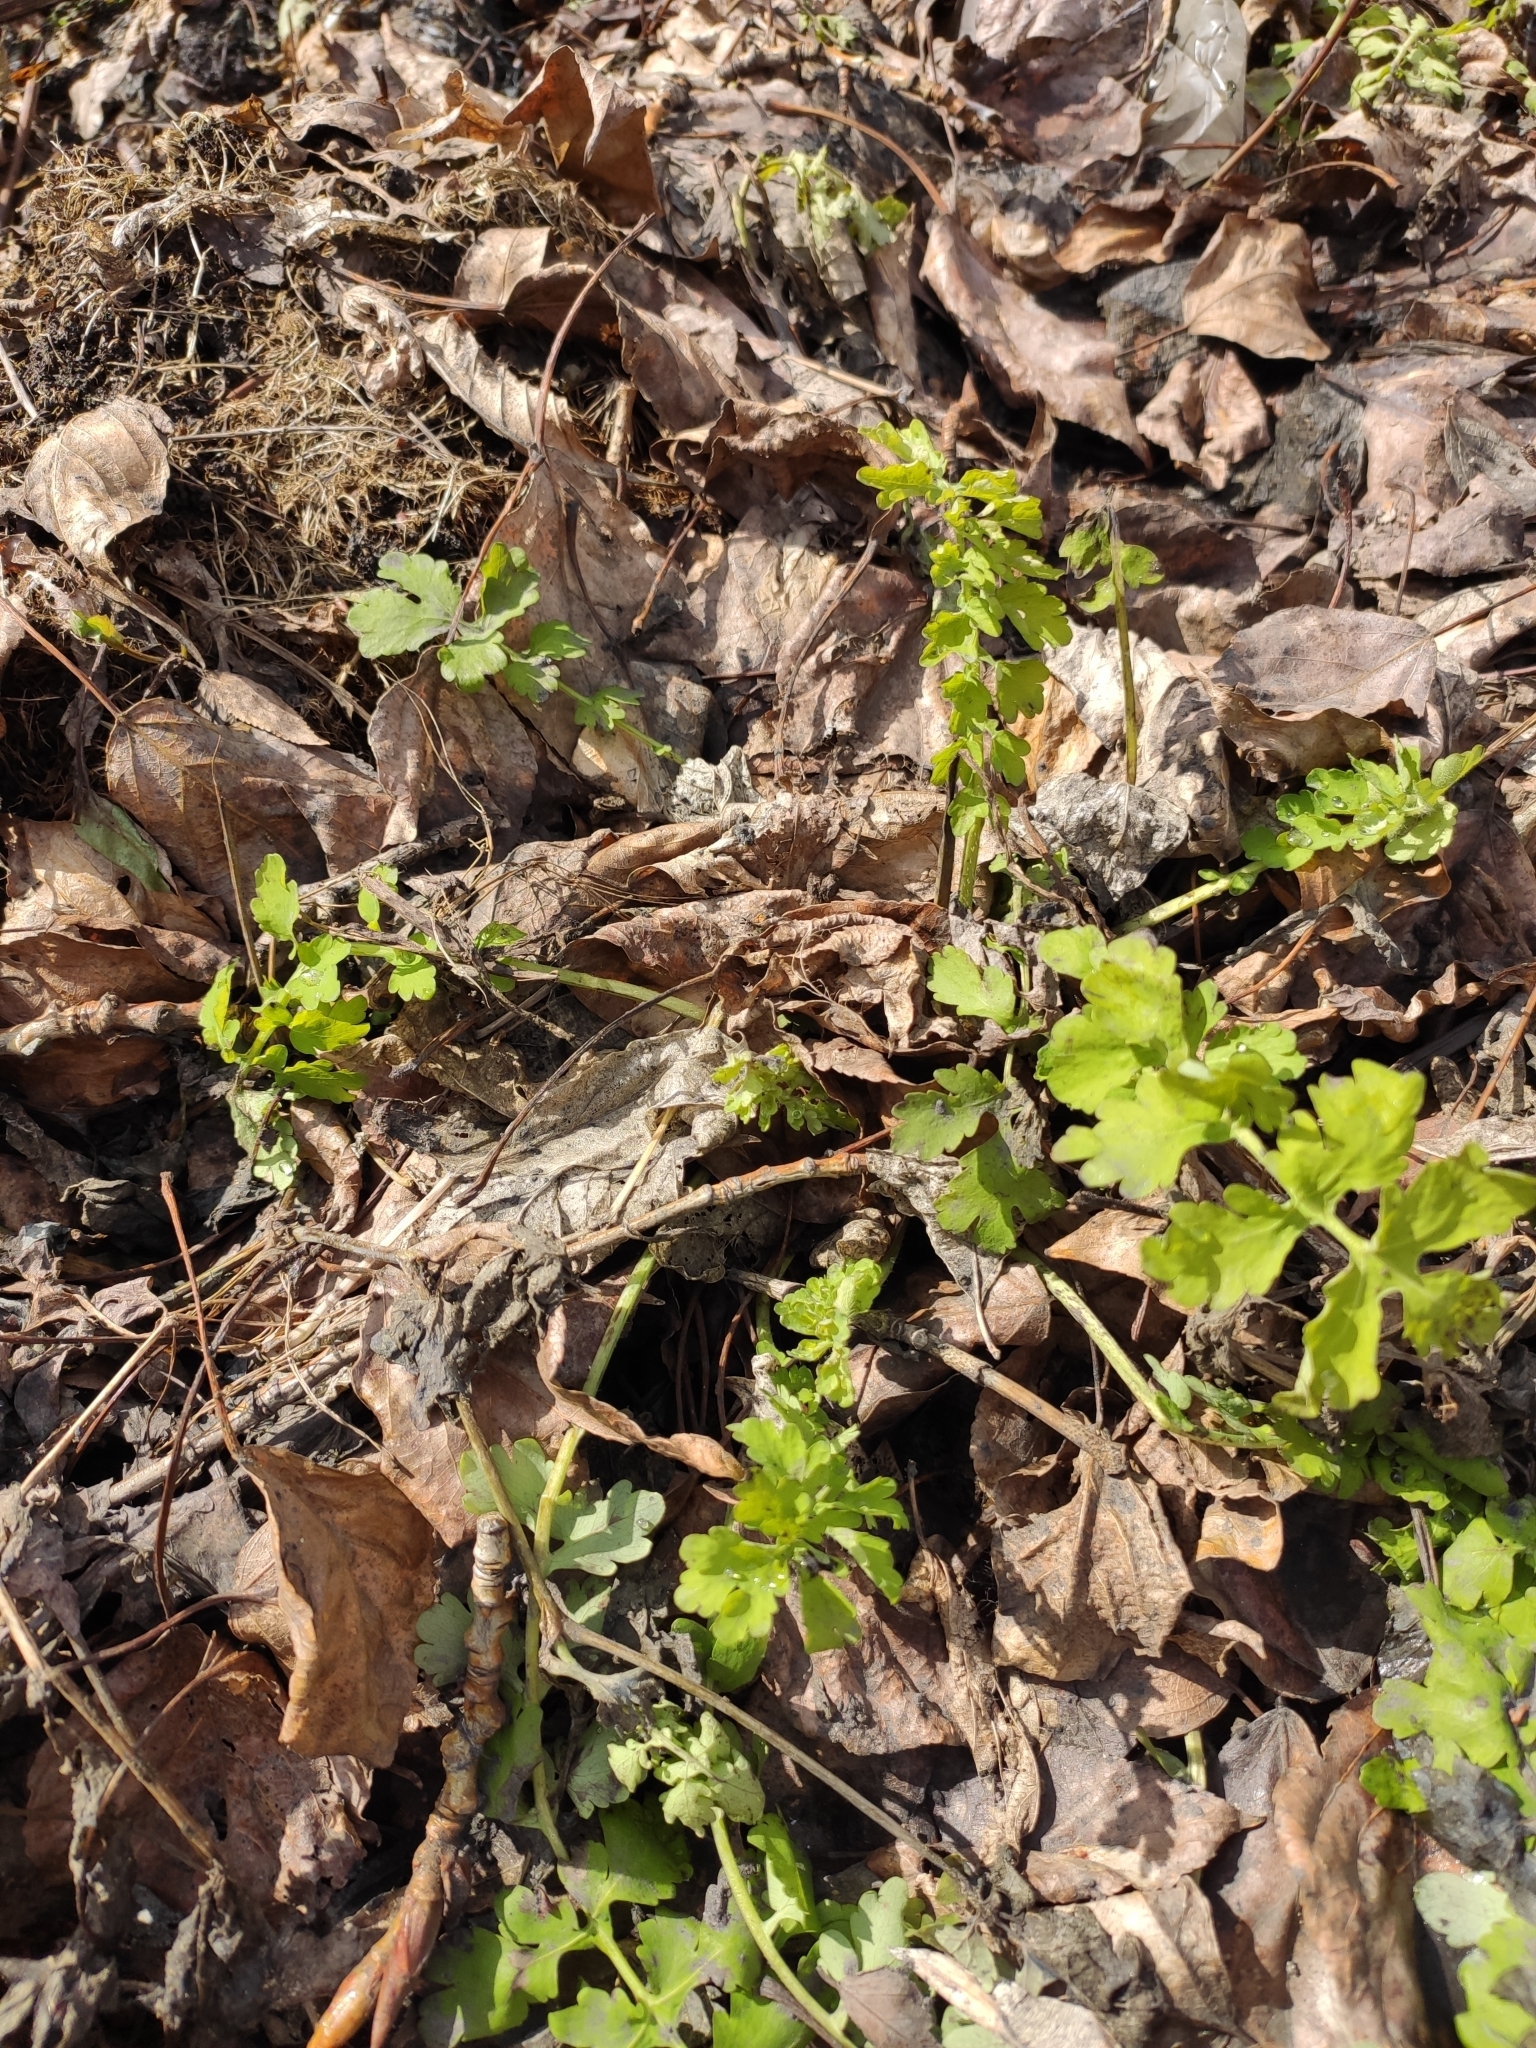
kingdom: Plantae
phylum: Tracheophyta
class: Magnoliopsida
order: Ranunculales
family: Papaveraceae
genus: Chelidonium
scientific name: Chelidonium majus
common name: Greater celandine
